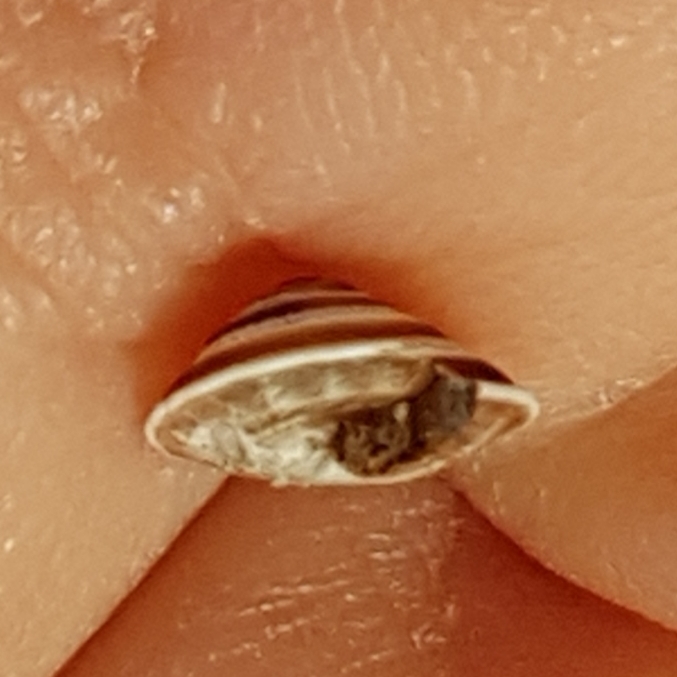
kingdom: Animalia
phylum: Mollusca
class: Gastropoda
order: Stylommatophora
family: Geomitridae
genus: Trochoidea
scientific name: Trochoidea elegans
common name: Elegant helicellid
